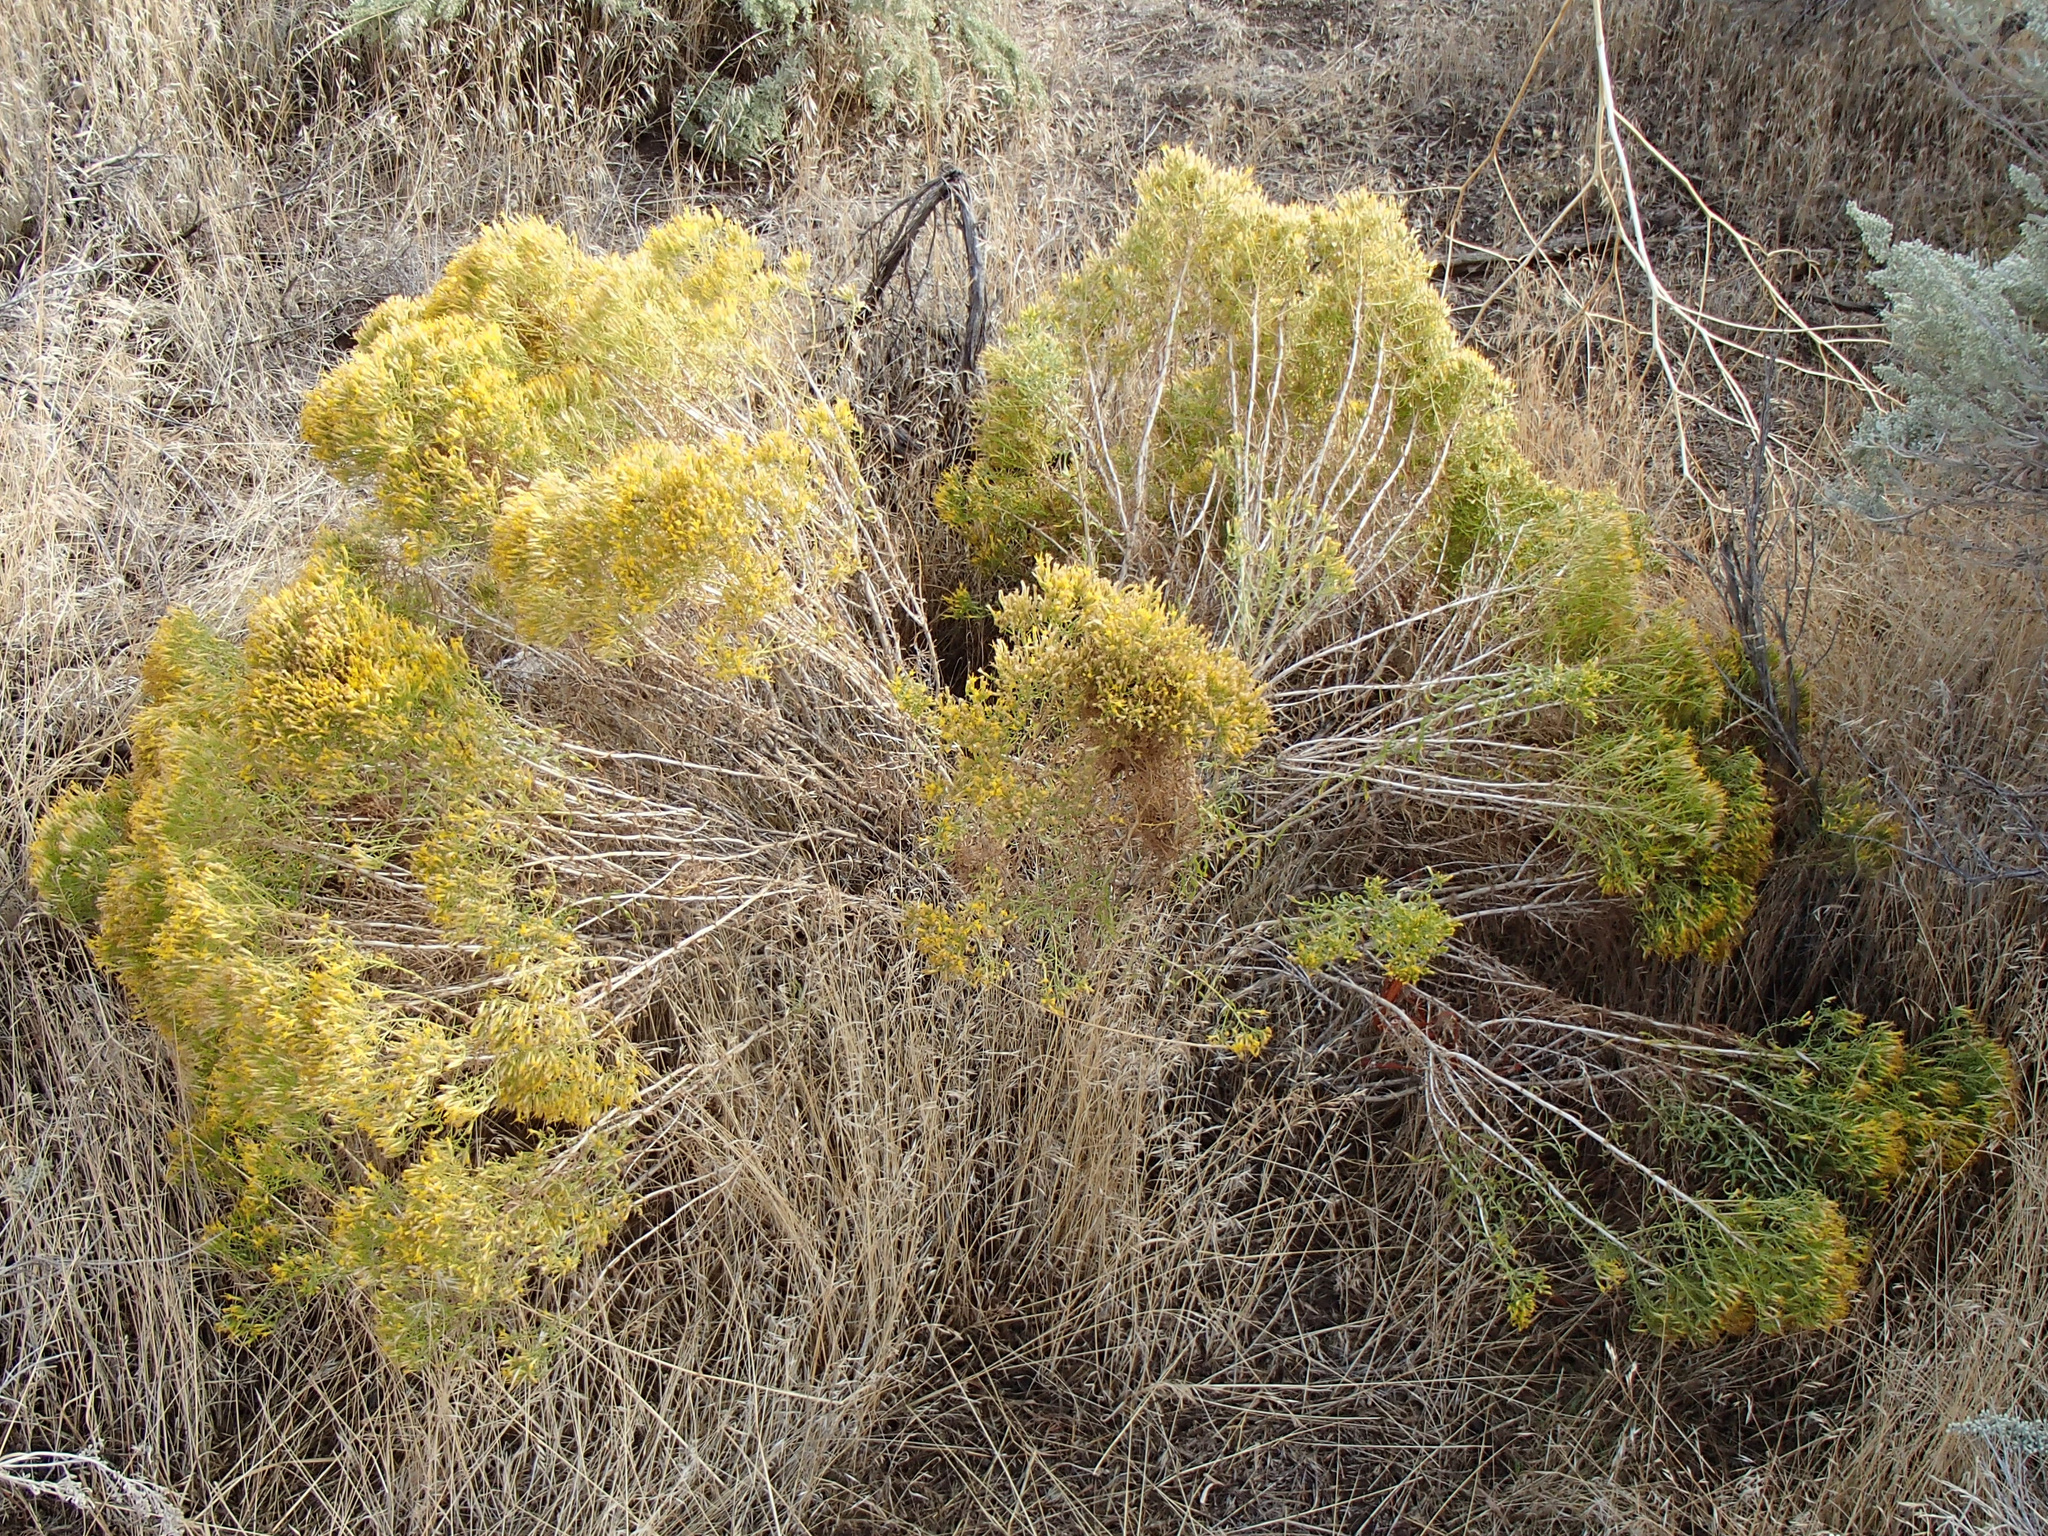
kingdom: Plantae
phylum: Tracheophyta
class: Magnoliopsida
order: Asterales
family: Asteraceae
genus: Chrysothamnus
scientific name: Chrysothamnus viscidiflorus
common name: Yellow rabbitbrush
